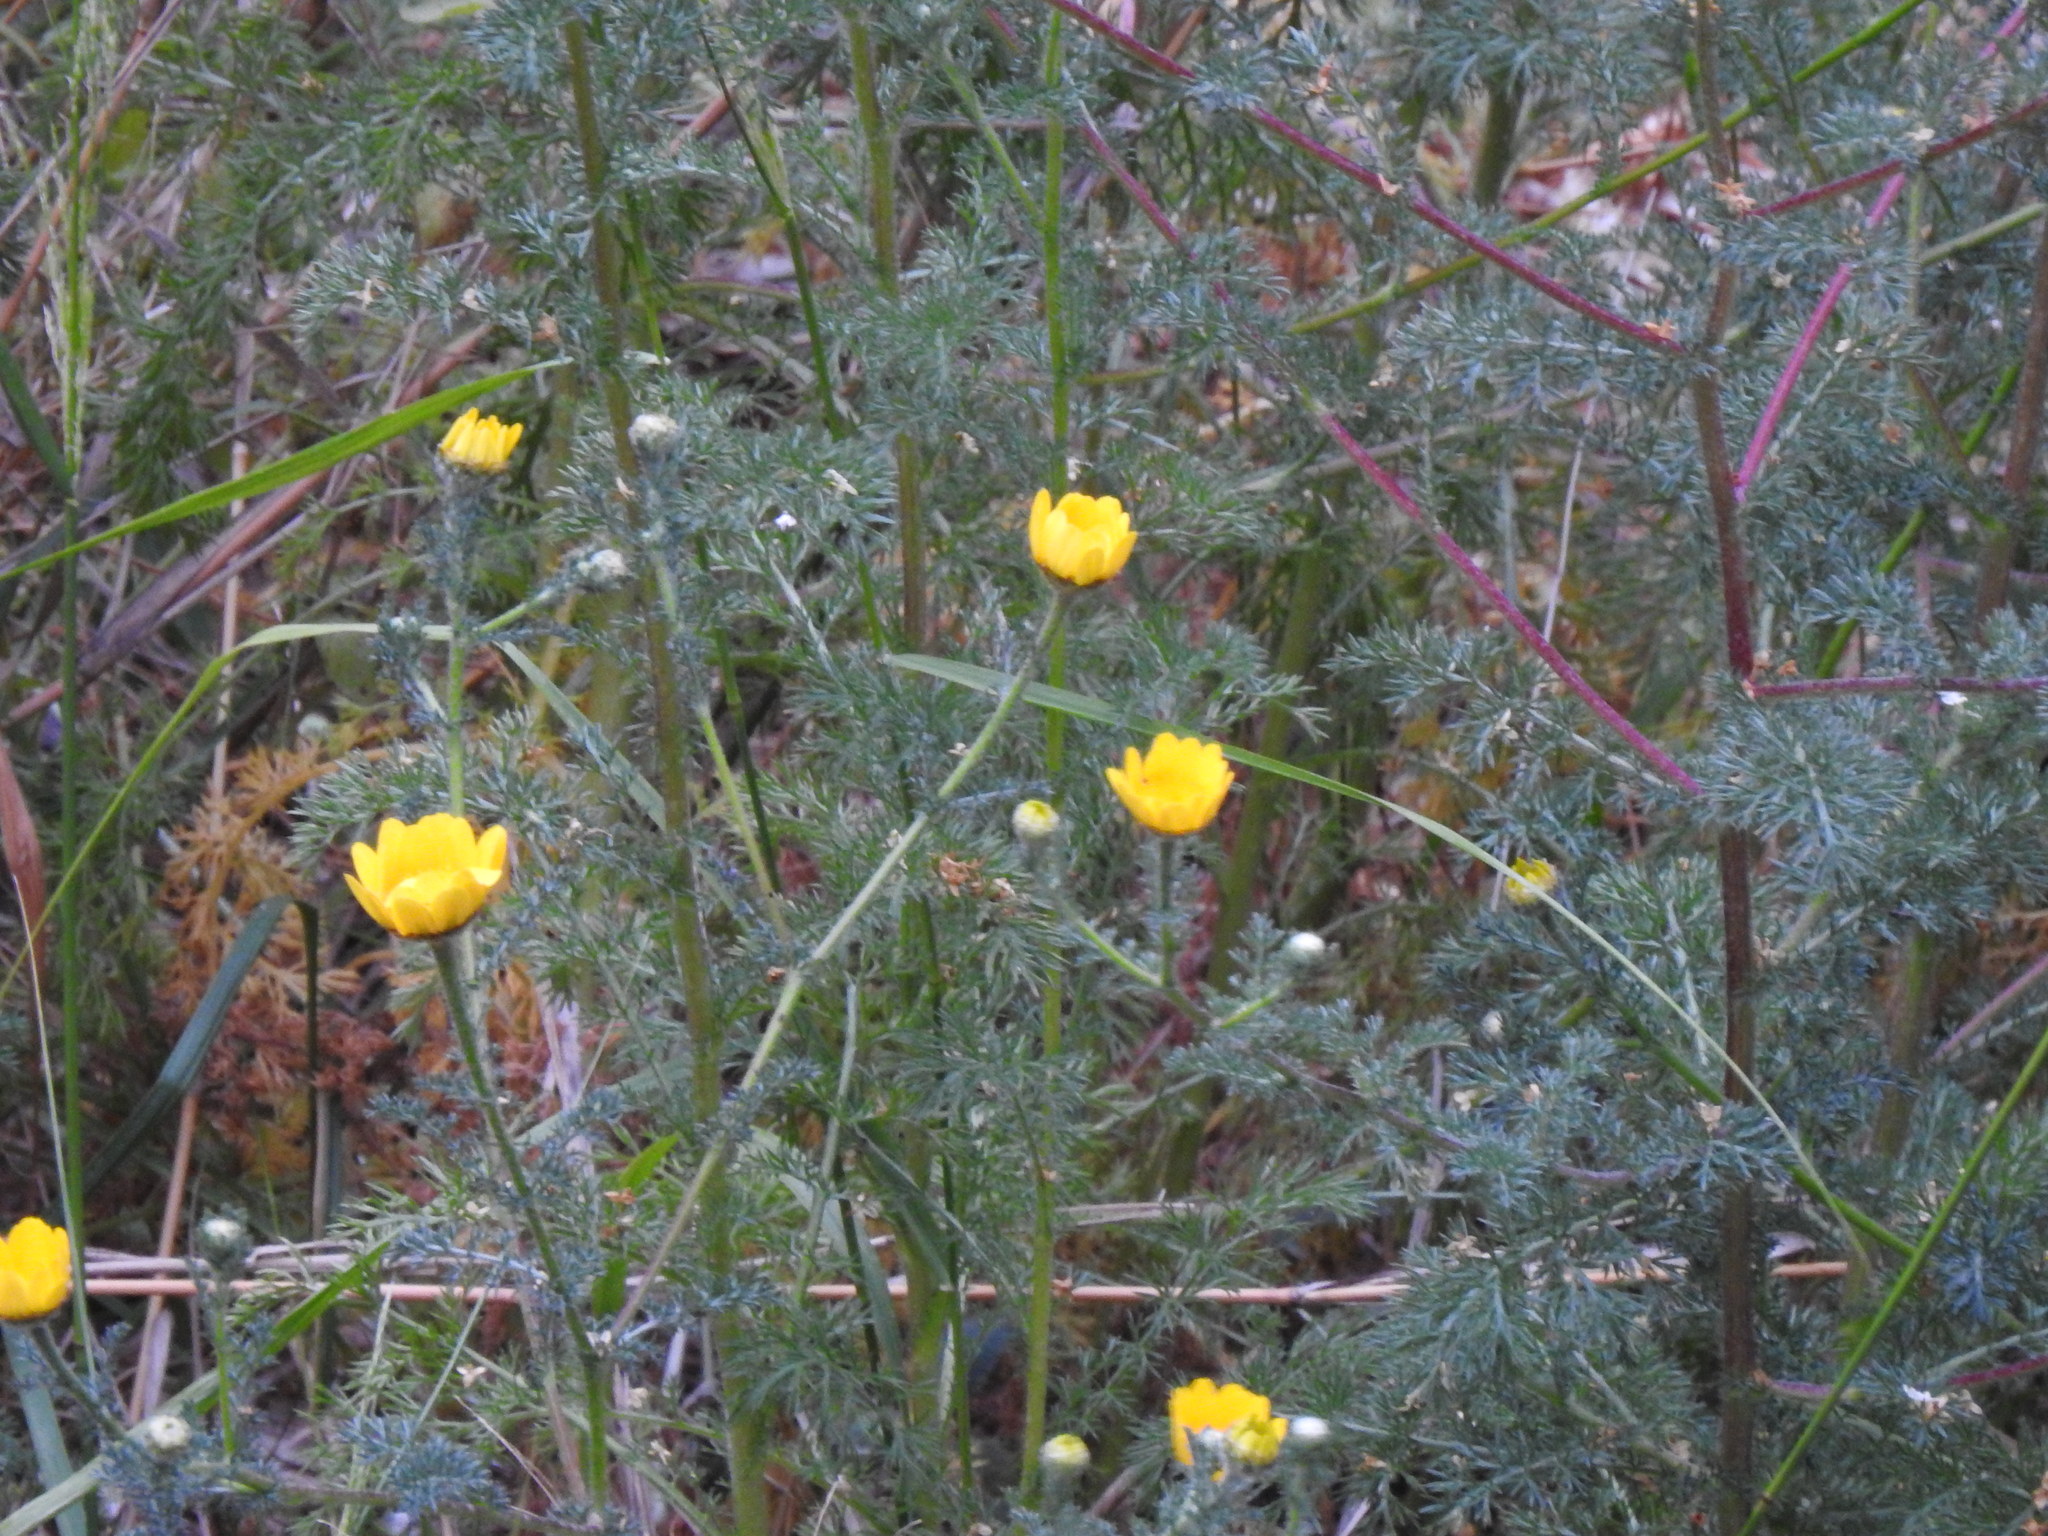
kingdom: Plantae
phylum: Tracheophyta
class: Magnoliopsida
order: Asterales
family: Asteraceae
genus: Anacyclus
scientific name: Anacyclus radiatus
